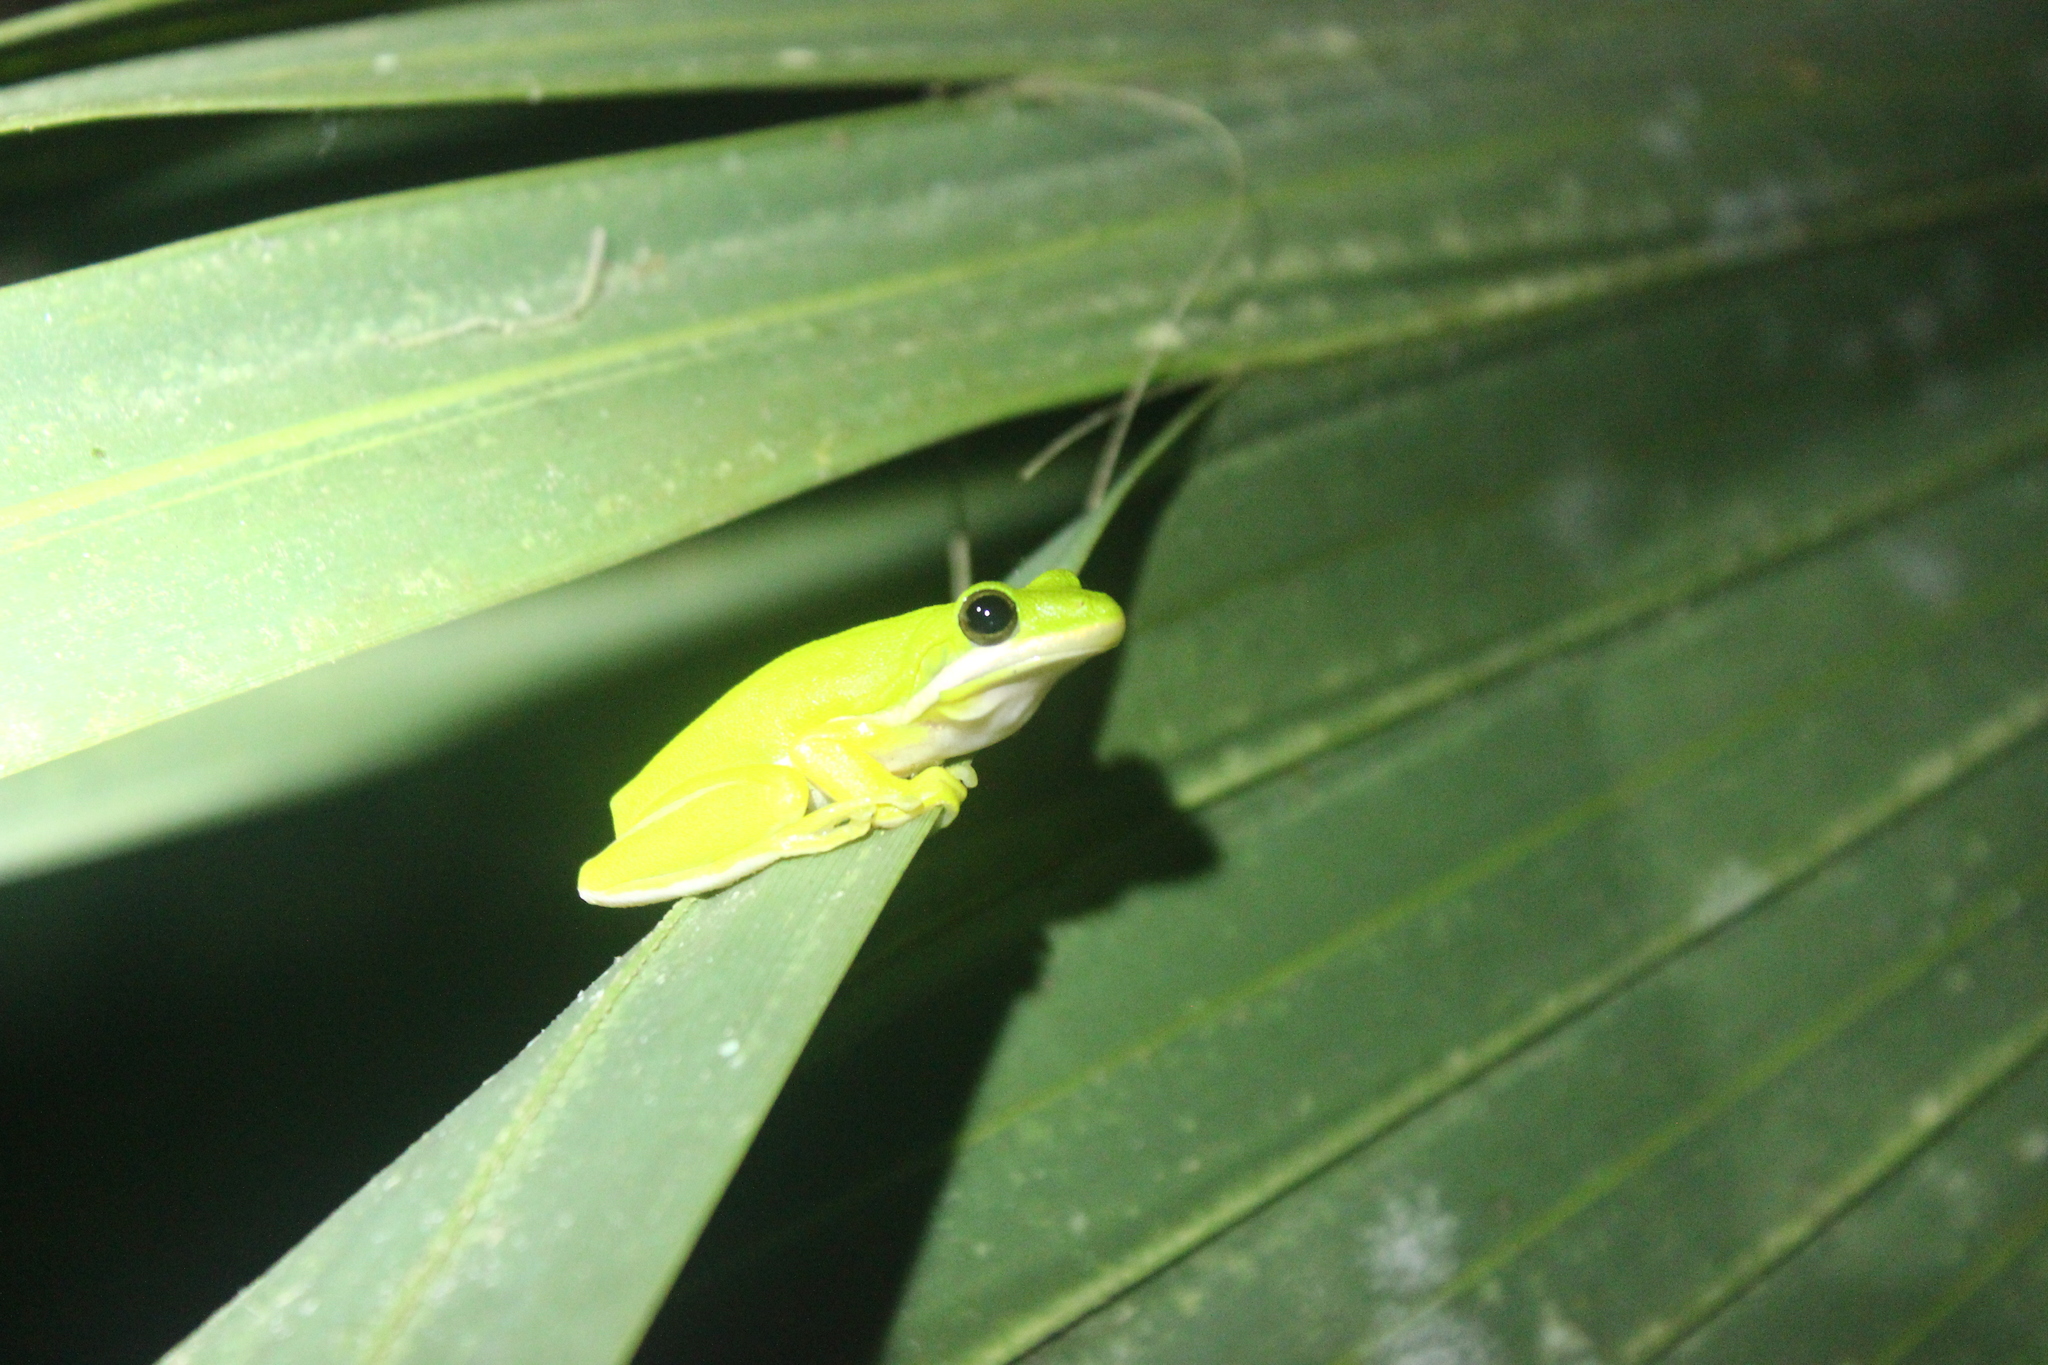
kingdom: Animalia
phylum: Chordata
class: Amphibia
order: Anura
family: Hylidae
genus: Dryophytes
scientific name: Dryophytes cinereus
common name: Green treefrog
